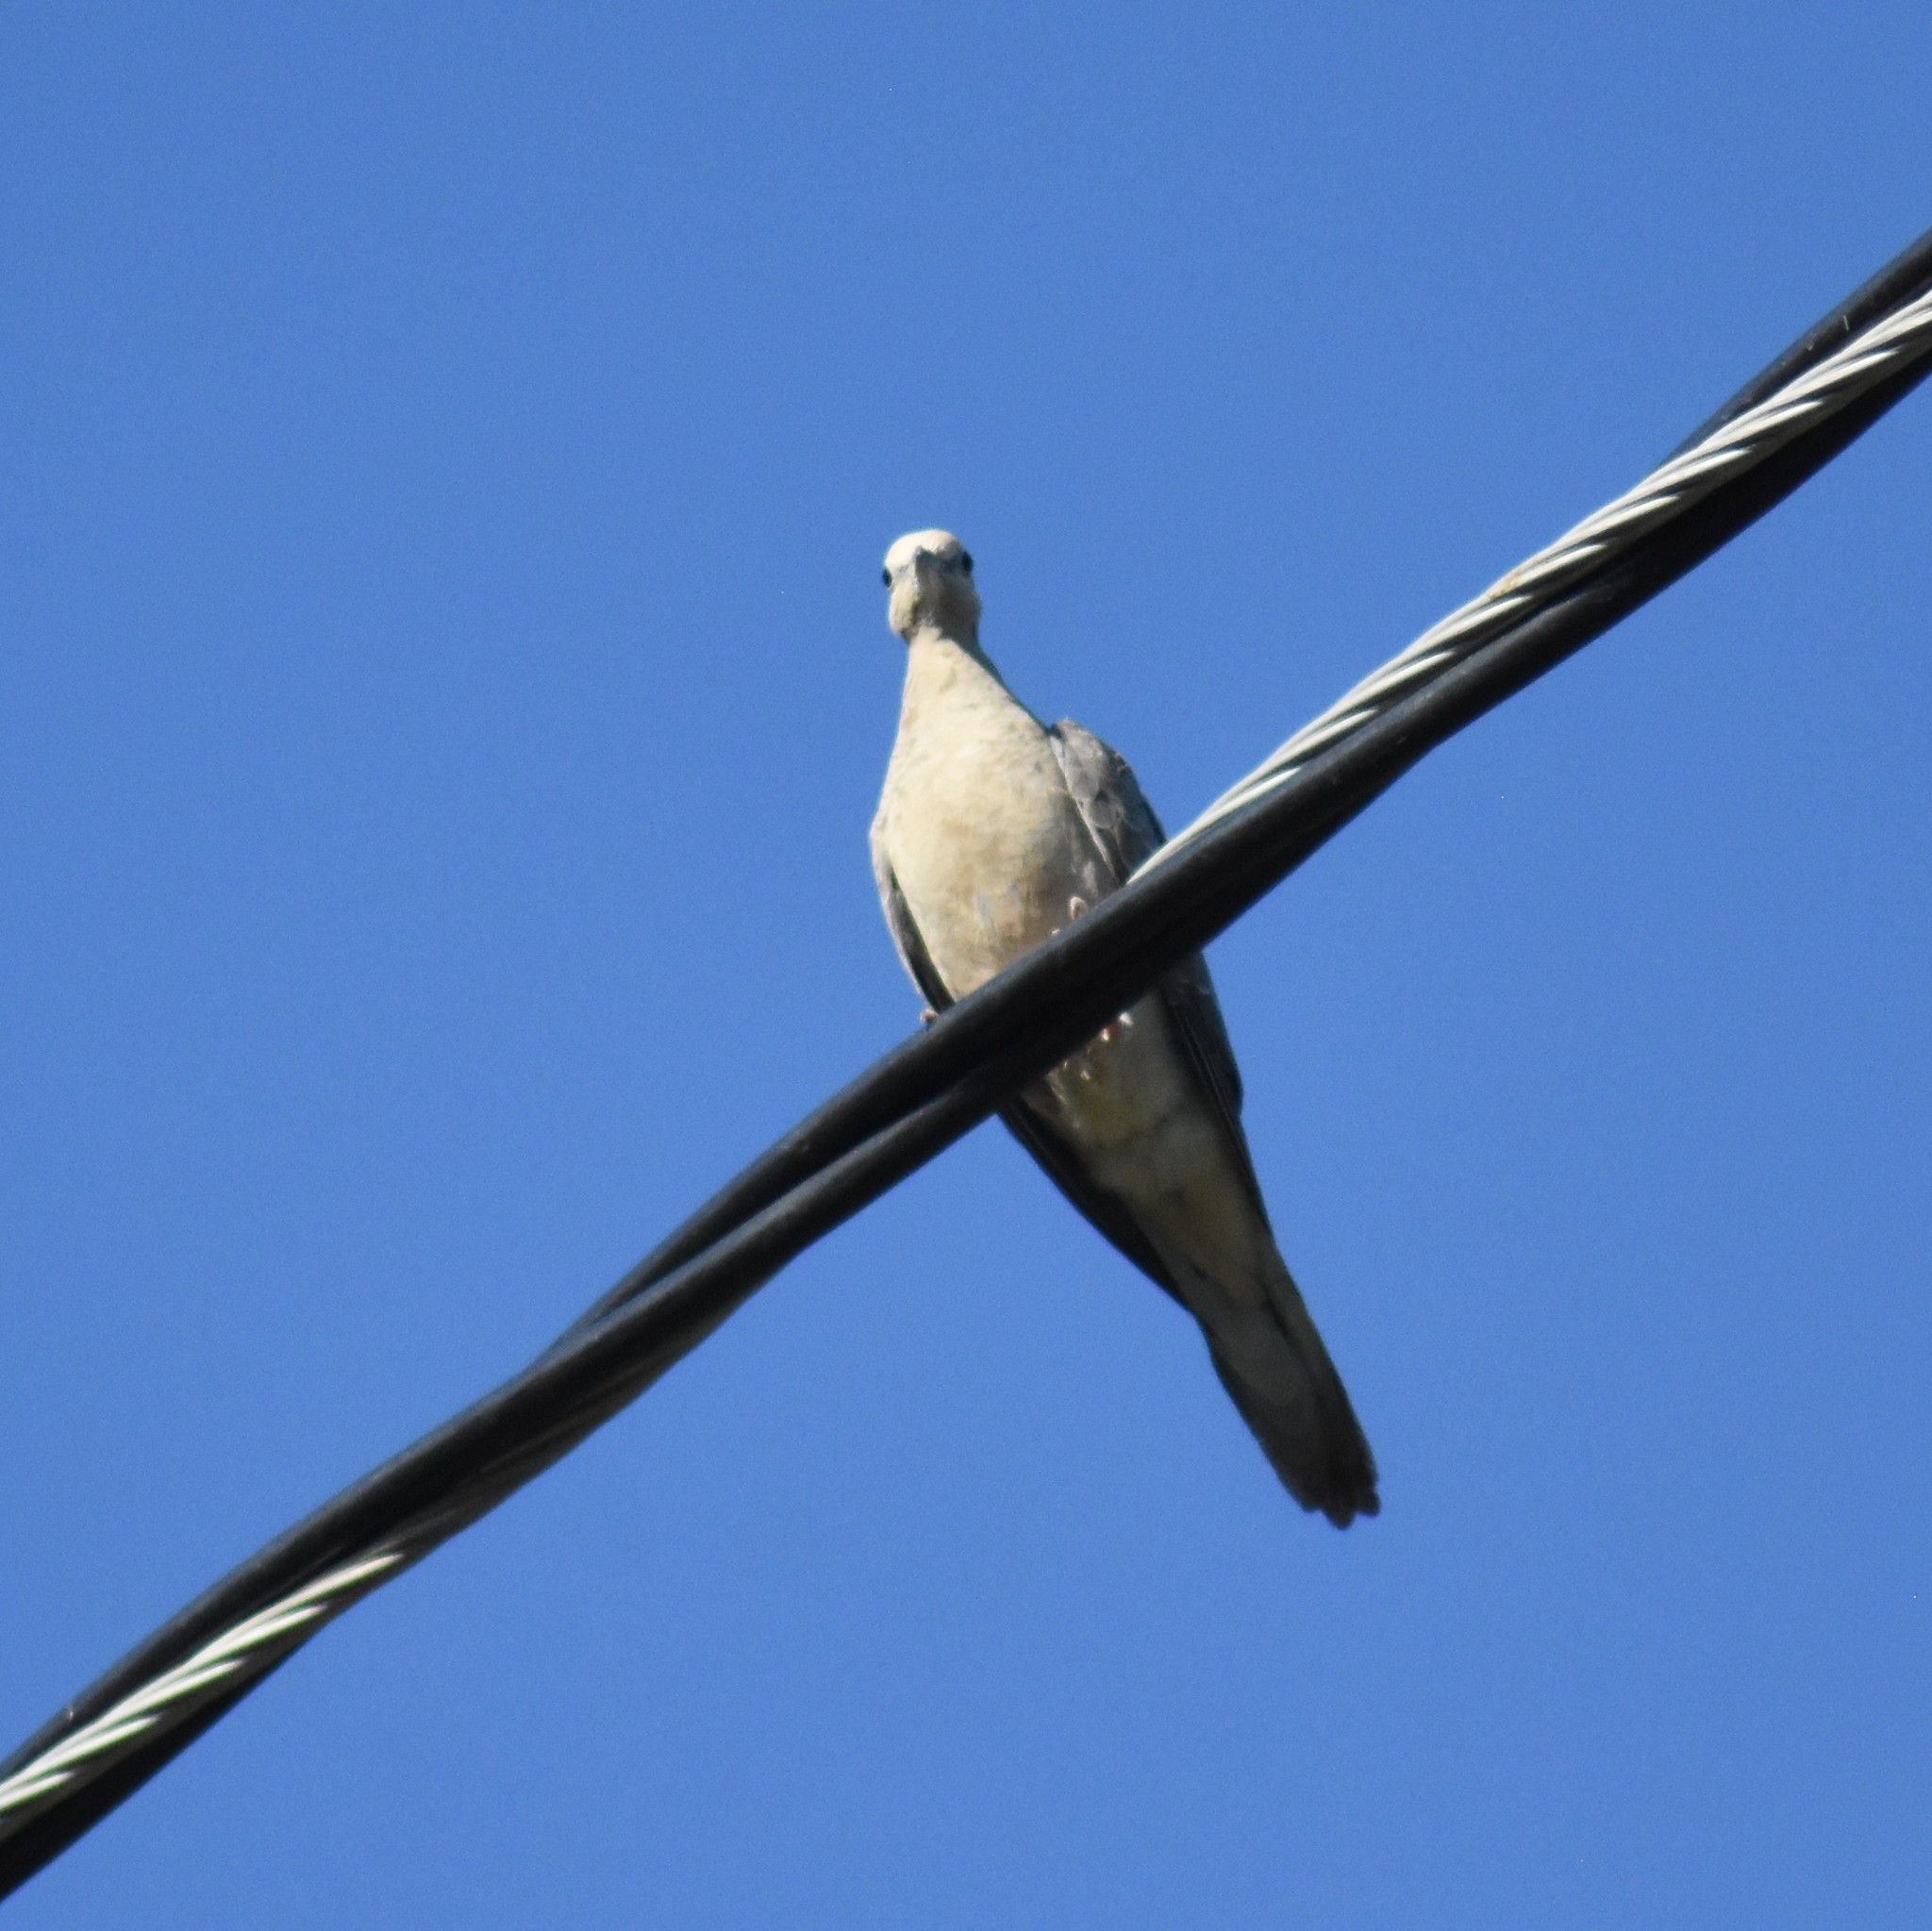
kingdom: Animalia
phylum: Chordata
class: Aves
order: Columbiformes
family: Columbidae
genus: Zenaida
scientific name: Zenaida macroura
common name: Mourning dove
